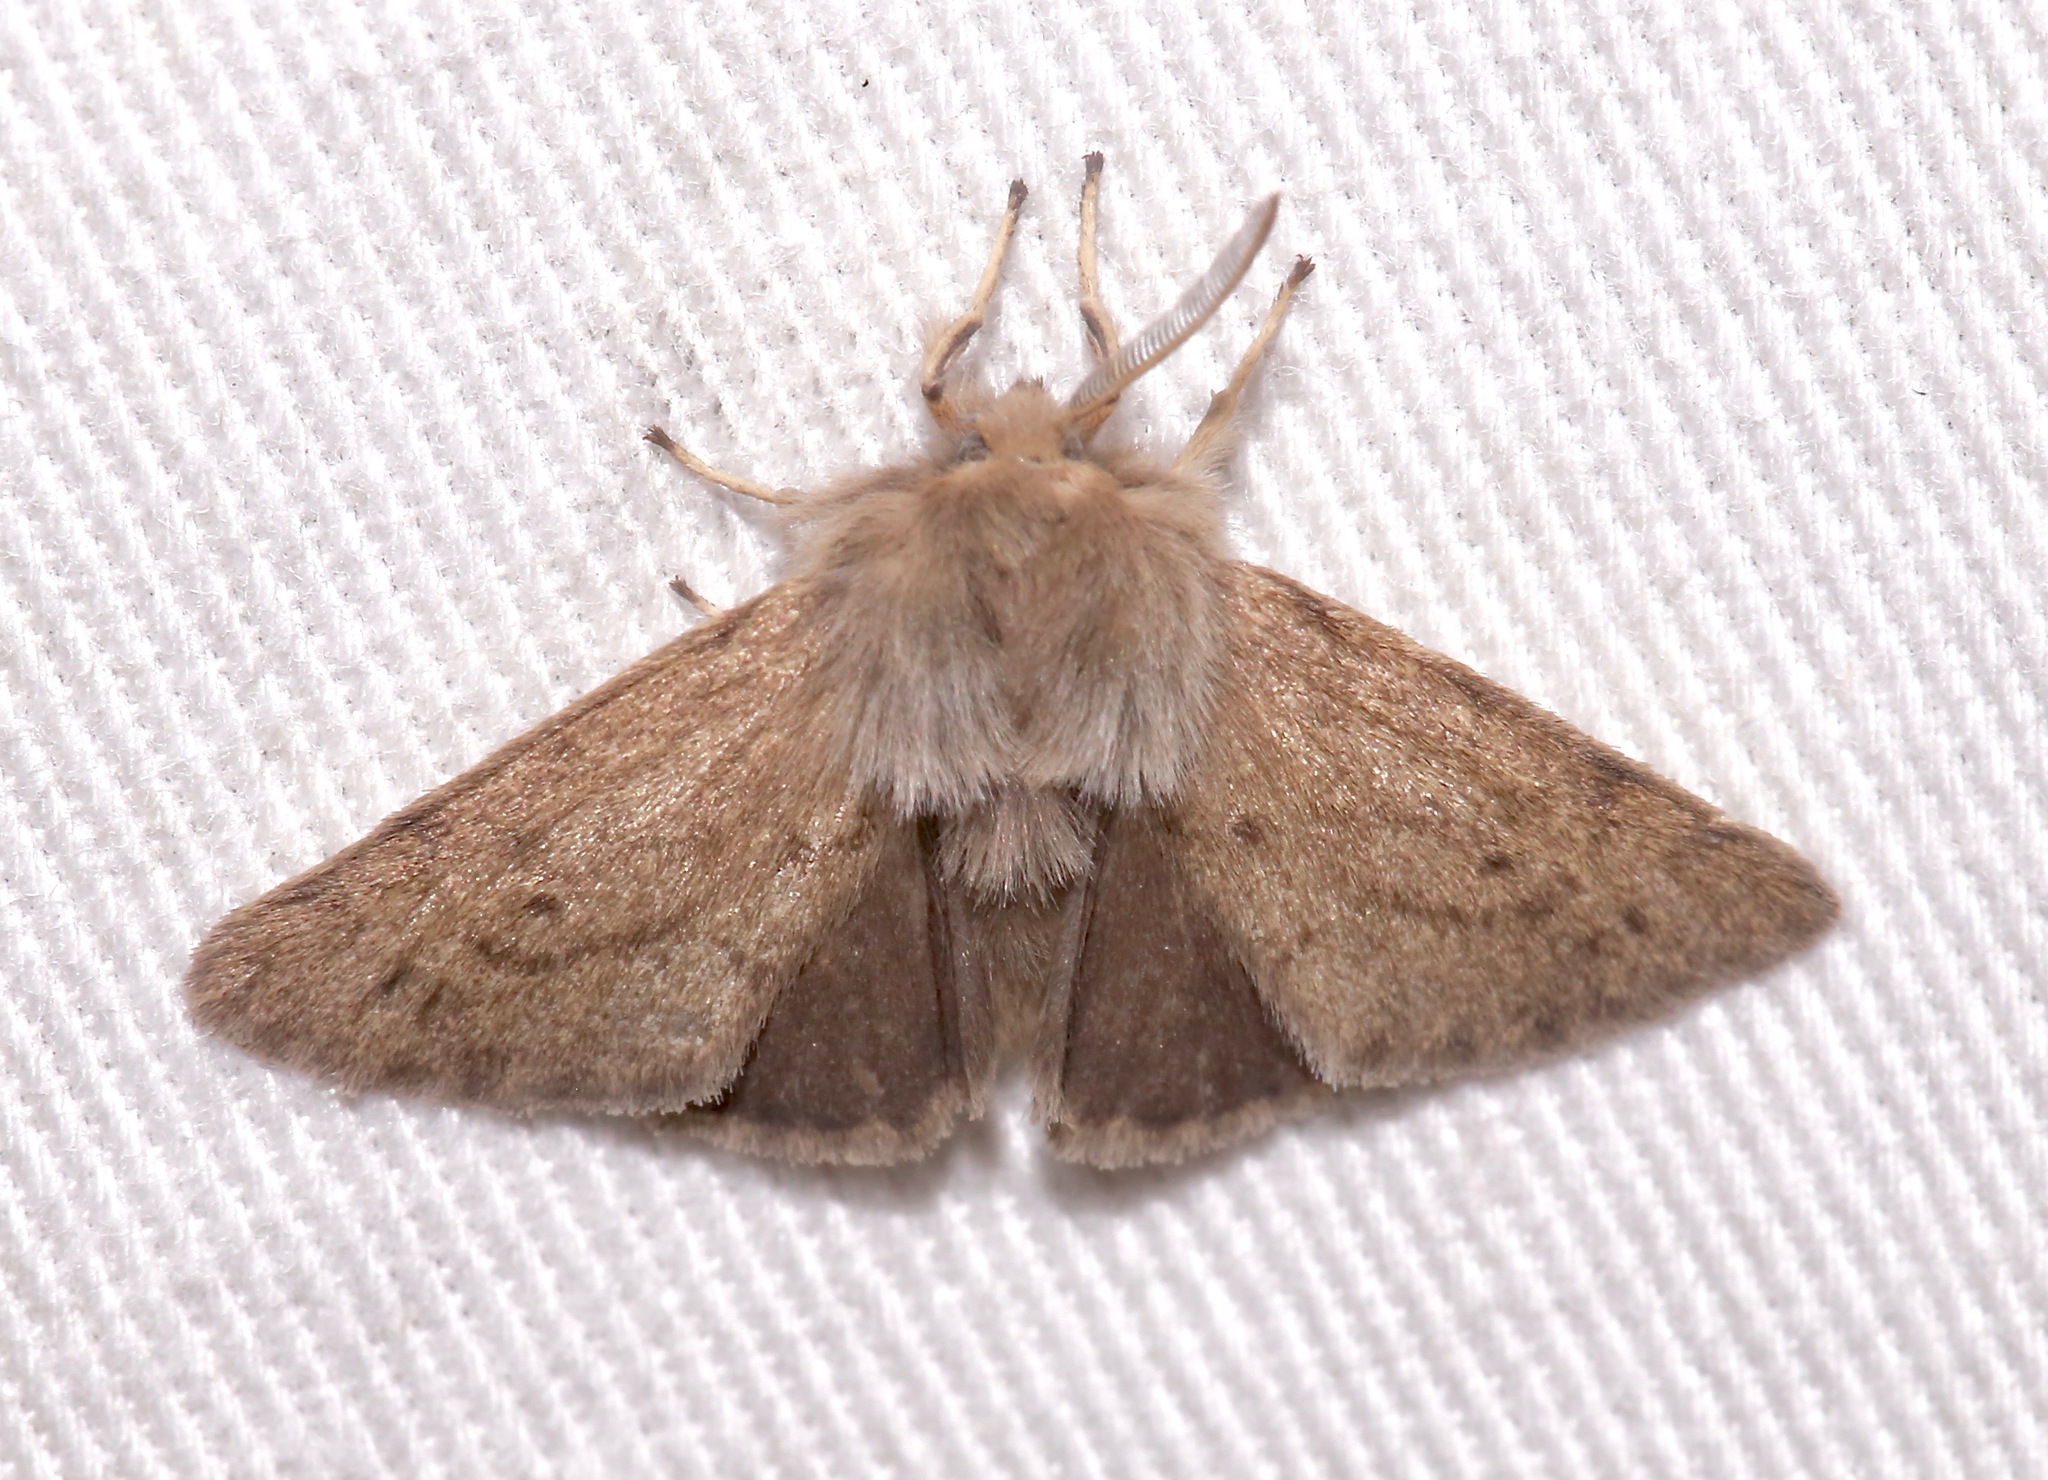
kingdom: Animalia
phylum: Arthropoda
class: Insecta
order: Lepidoptera
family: Erebidae
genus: Spilosoma
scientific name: Spilosoma vagans
